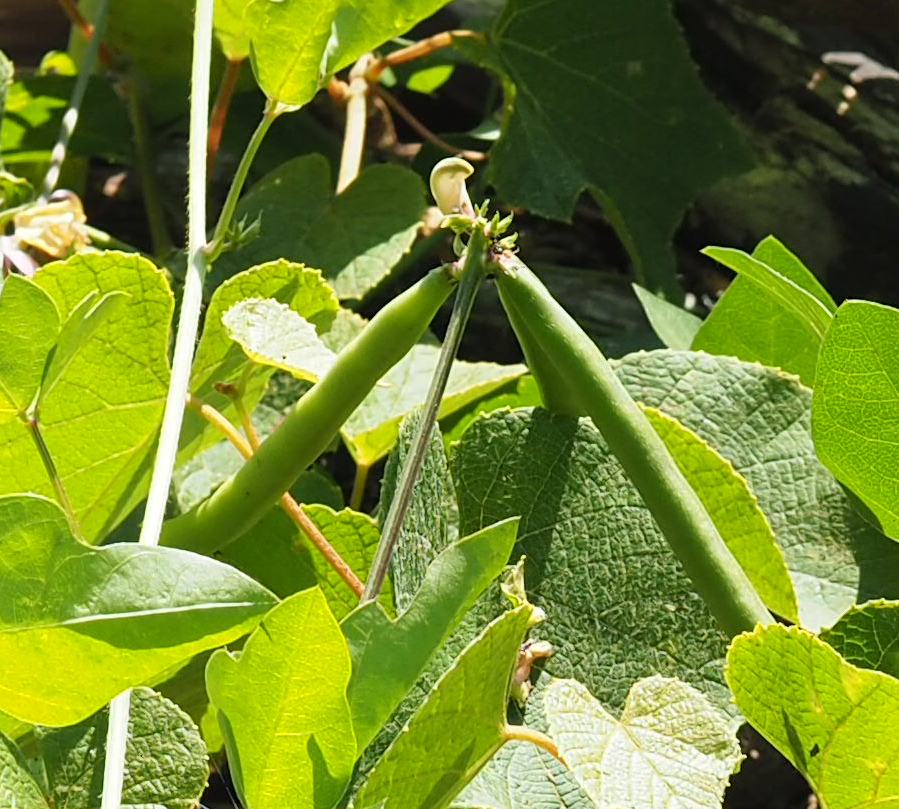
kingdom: Plantae
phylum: Tracheophyta
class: Magnoliopsida
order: Fabales
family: Fabaceae
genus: Strophostyles
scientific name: Strophostyles helvola
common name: Trailing wild bean
